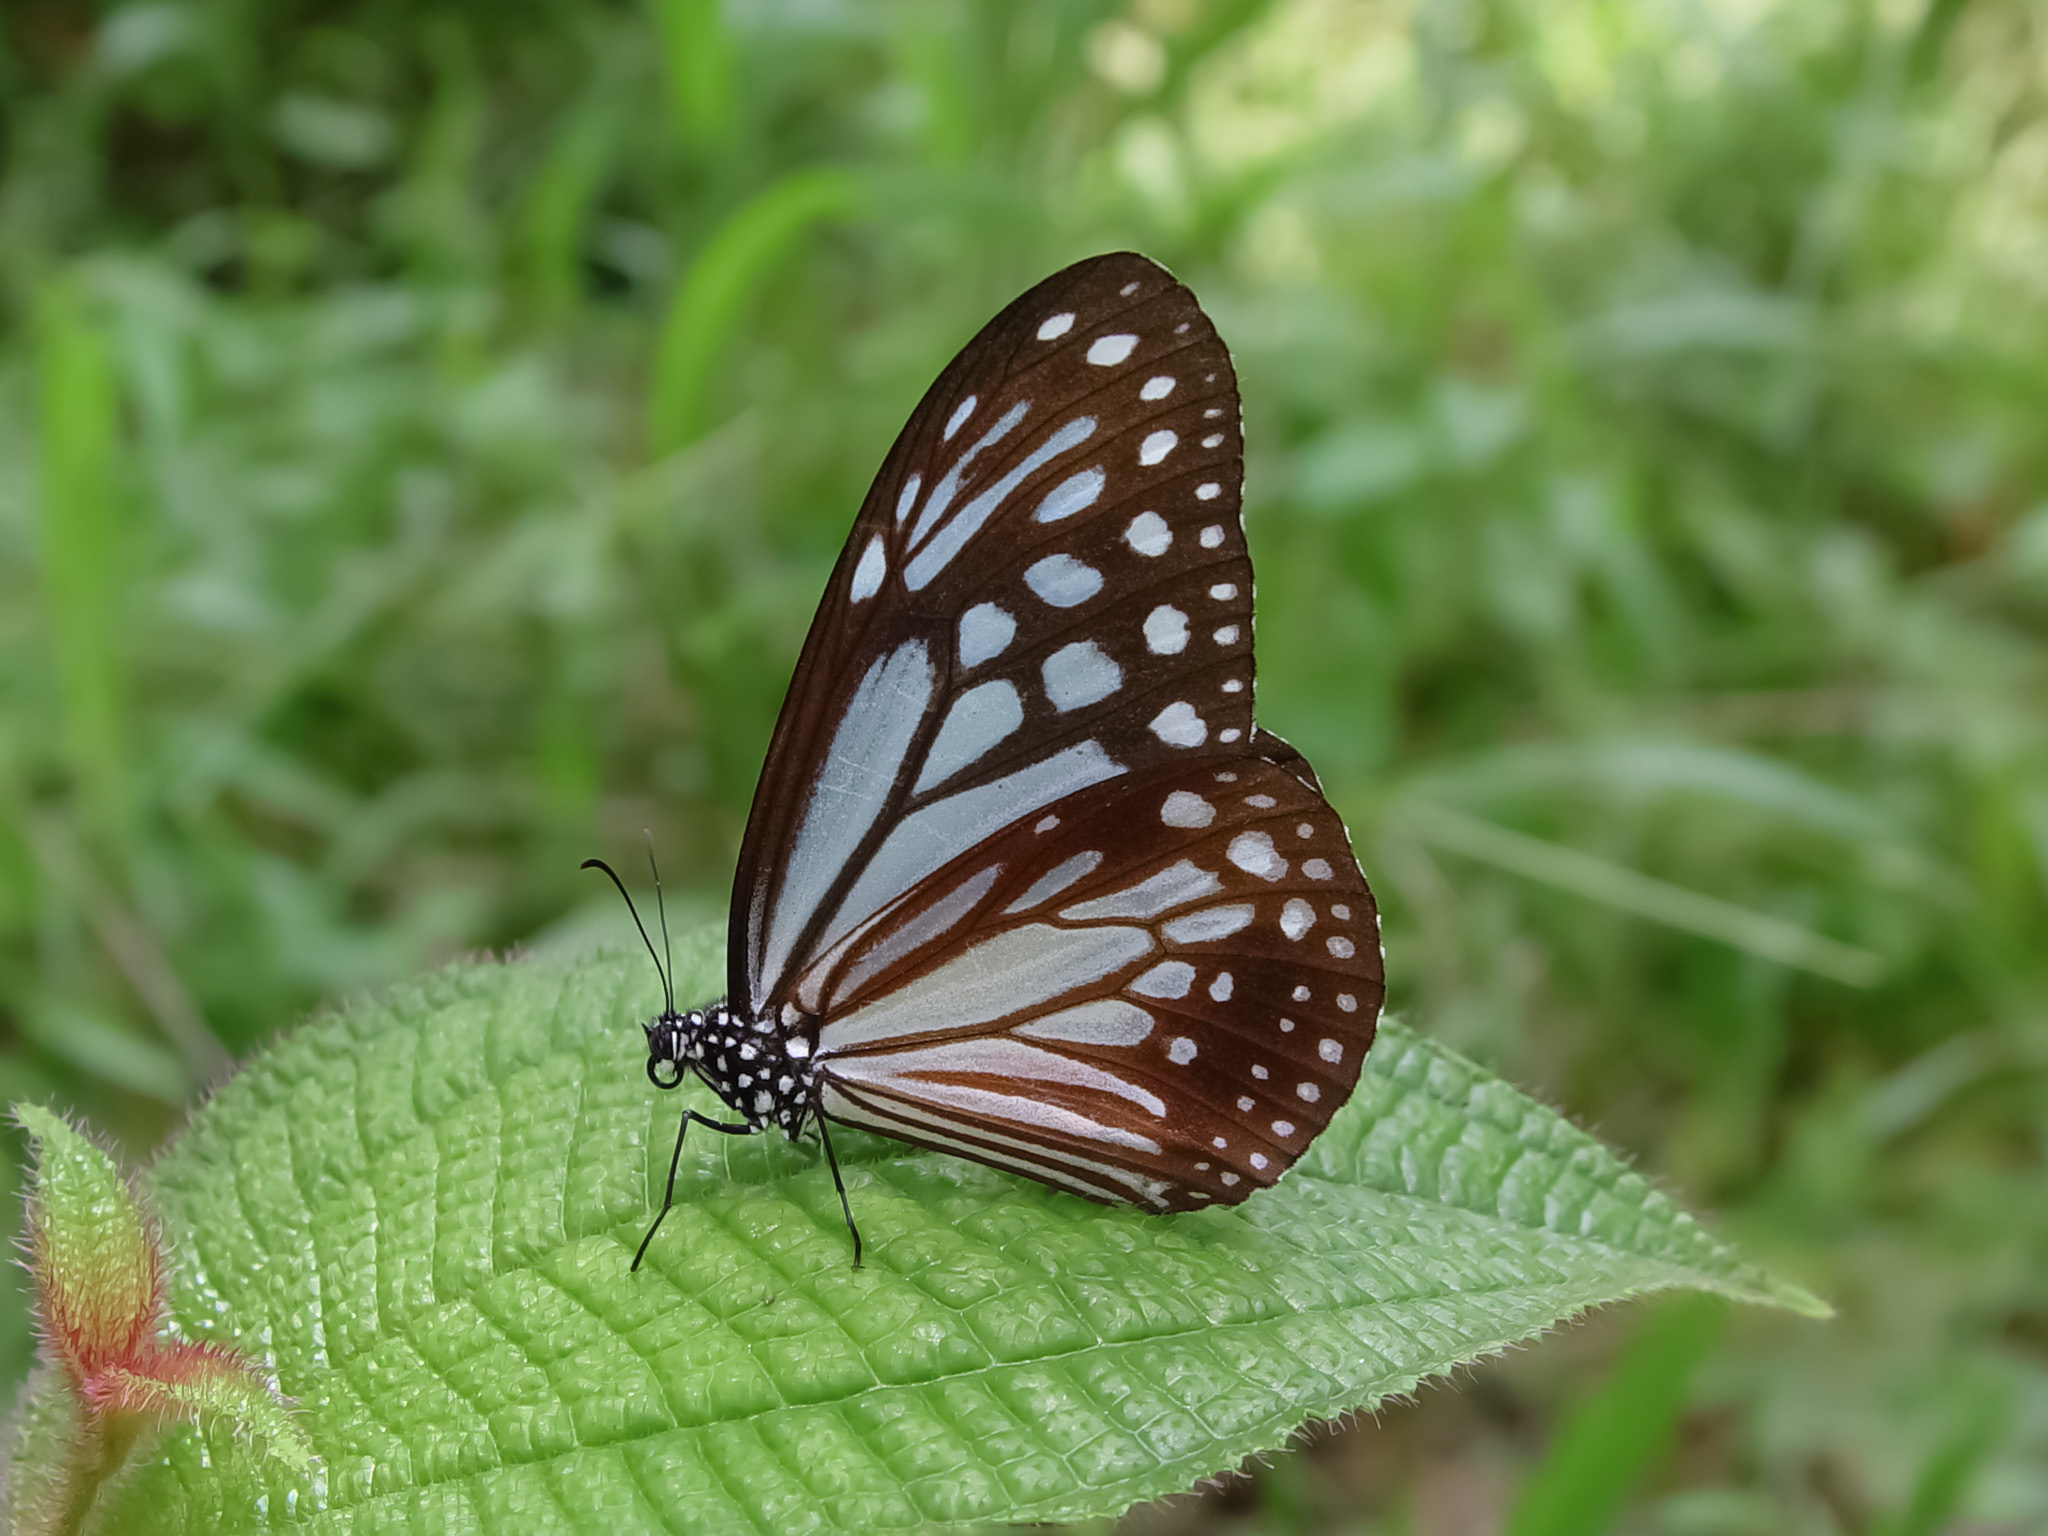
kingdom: Animalia
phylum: Arthropoda
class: Insecta
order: Lepidoptera
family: Nymphalidae
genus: Parantica
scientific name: Parantica melaneus
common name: Chocolate tiger
